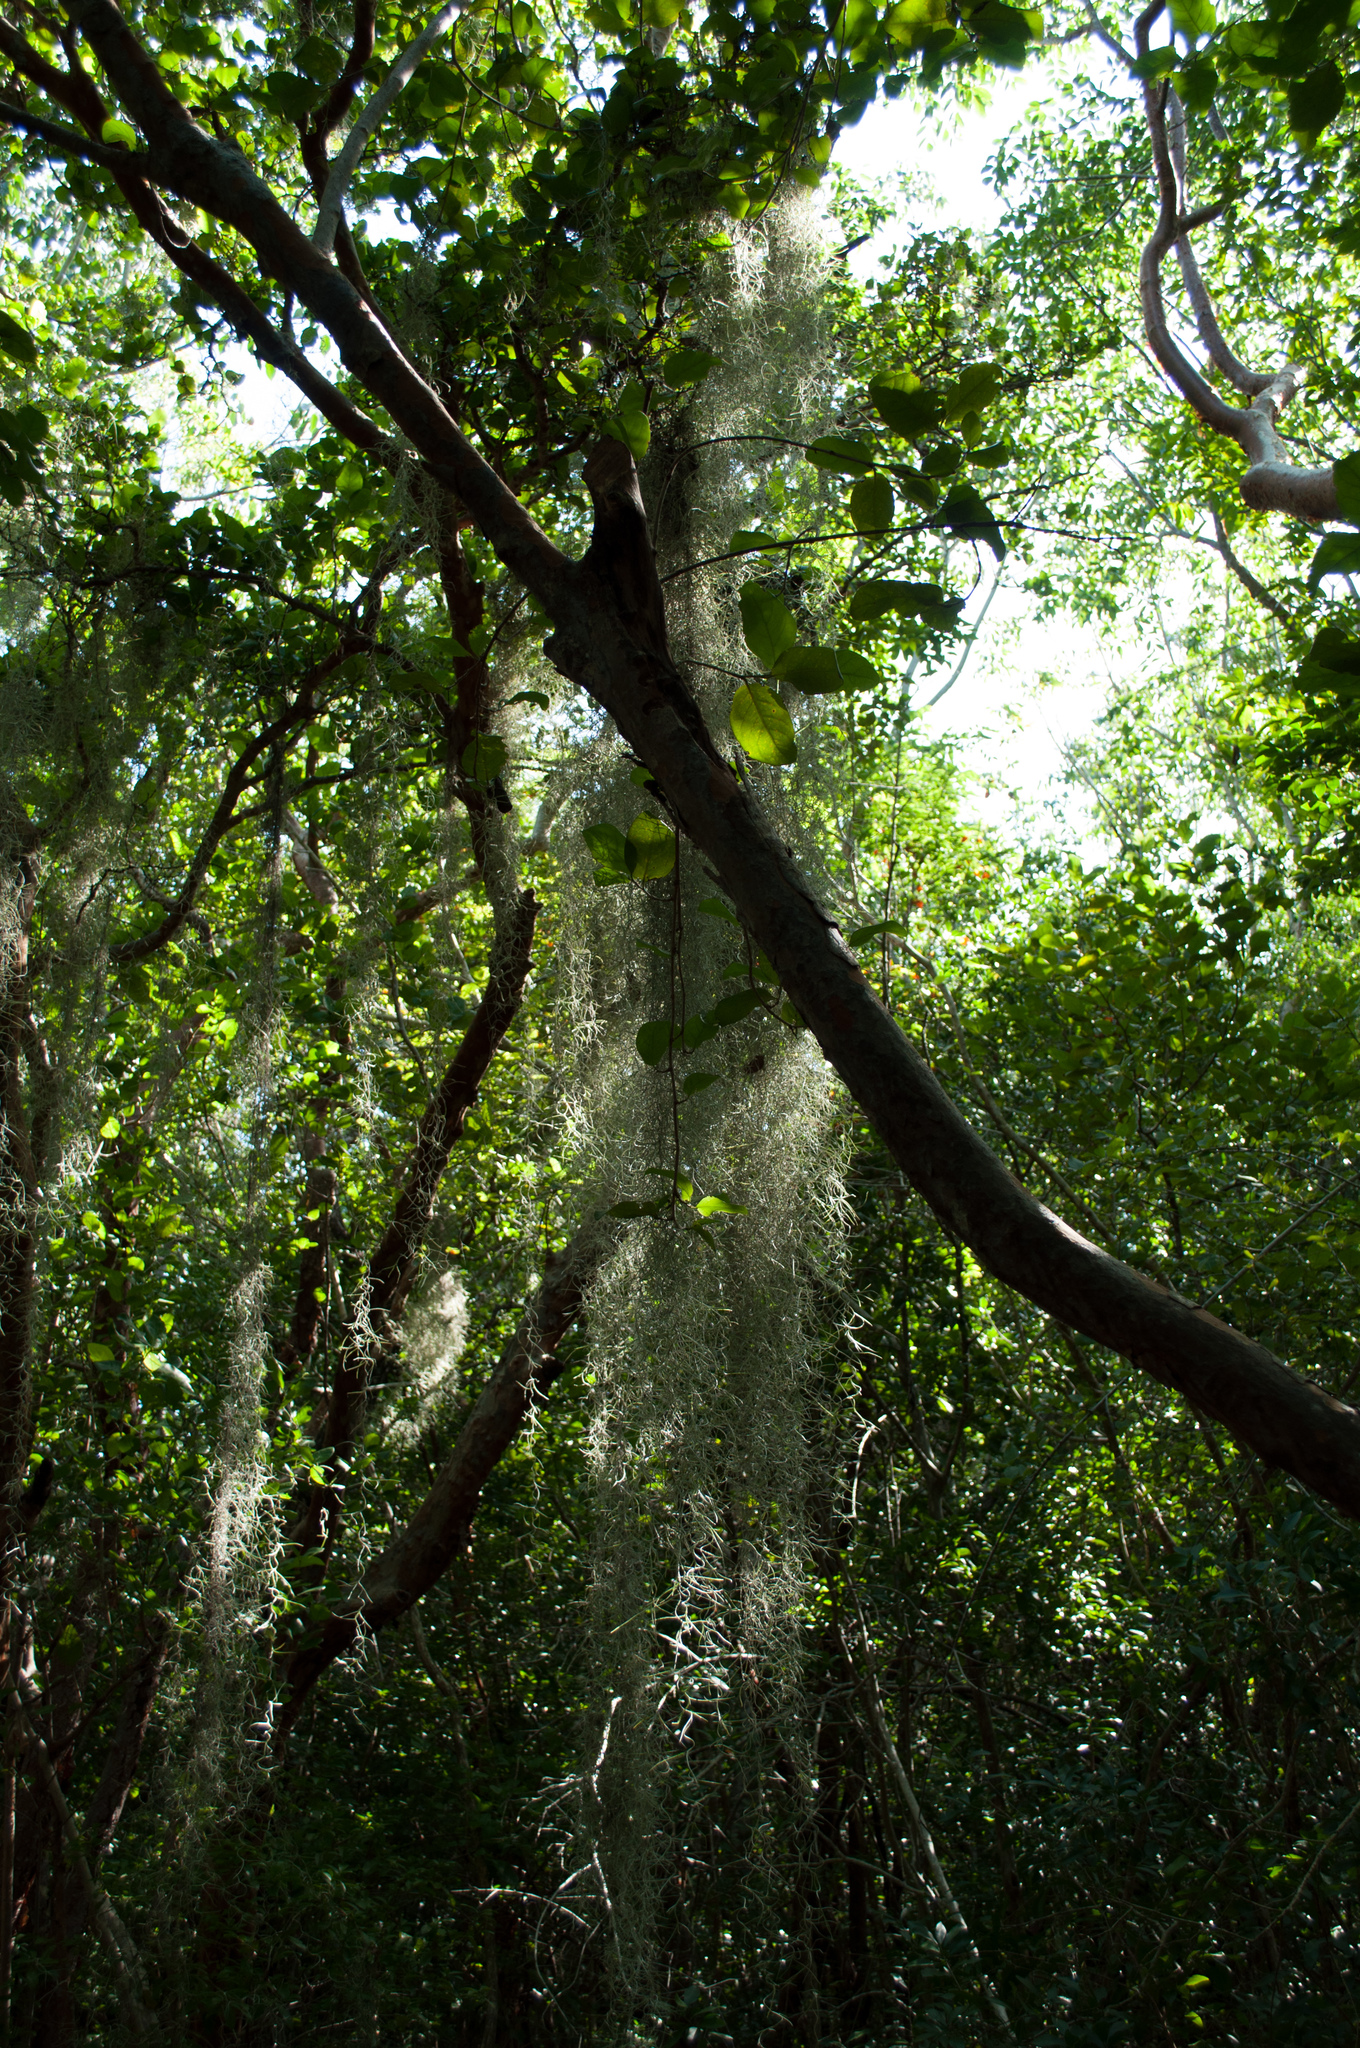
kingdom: Plantae
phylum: Tracheophyta
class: Liliopsida
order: Poales
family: Bromeliaceae
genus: Tillandsia
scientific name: Tillandsia usneoides
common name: Spanish moss
